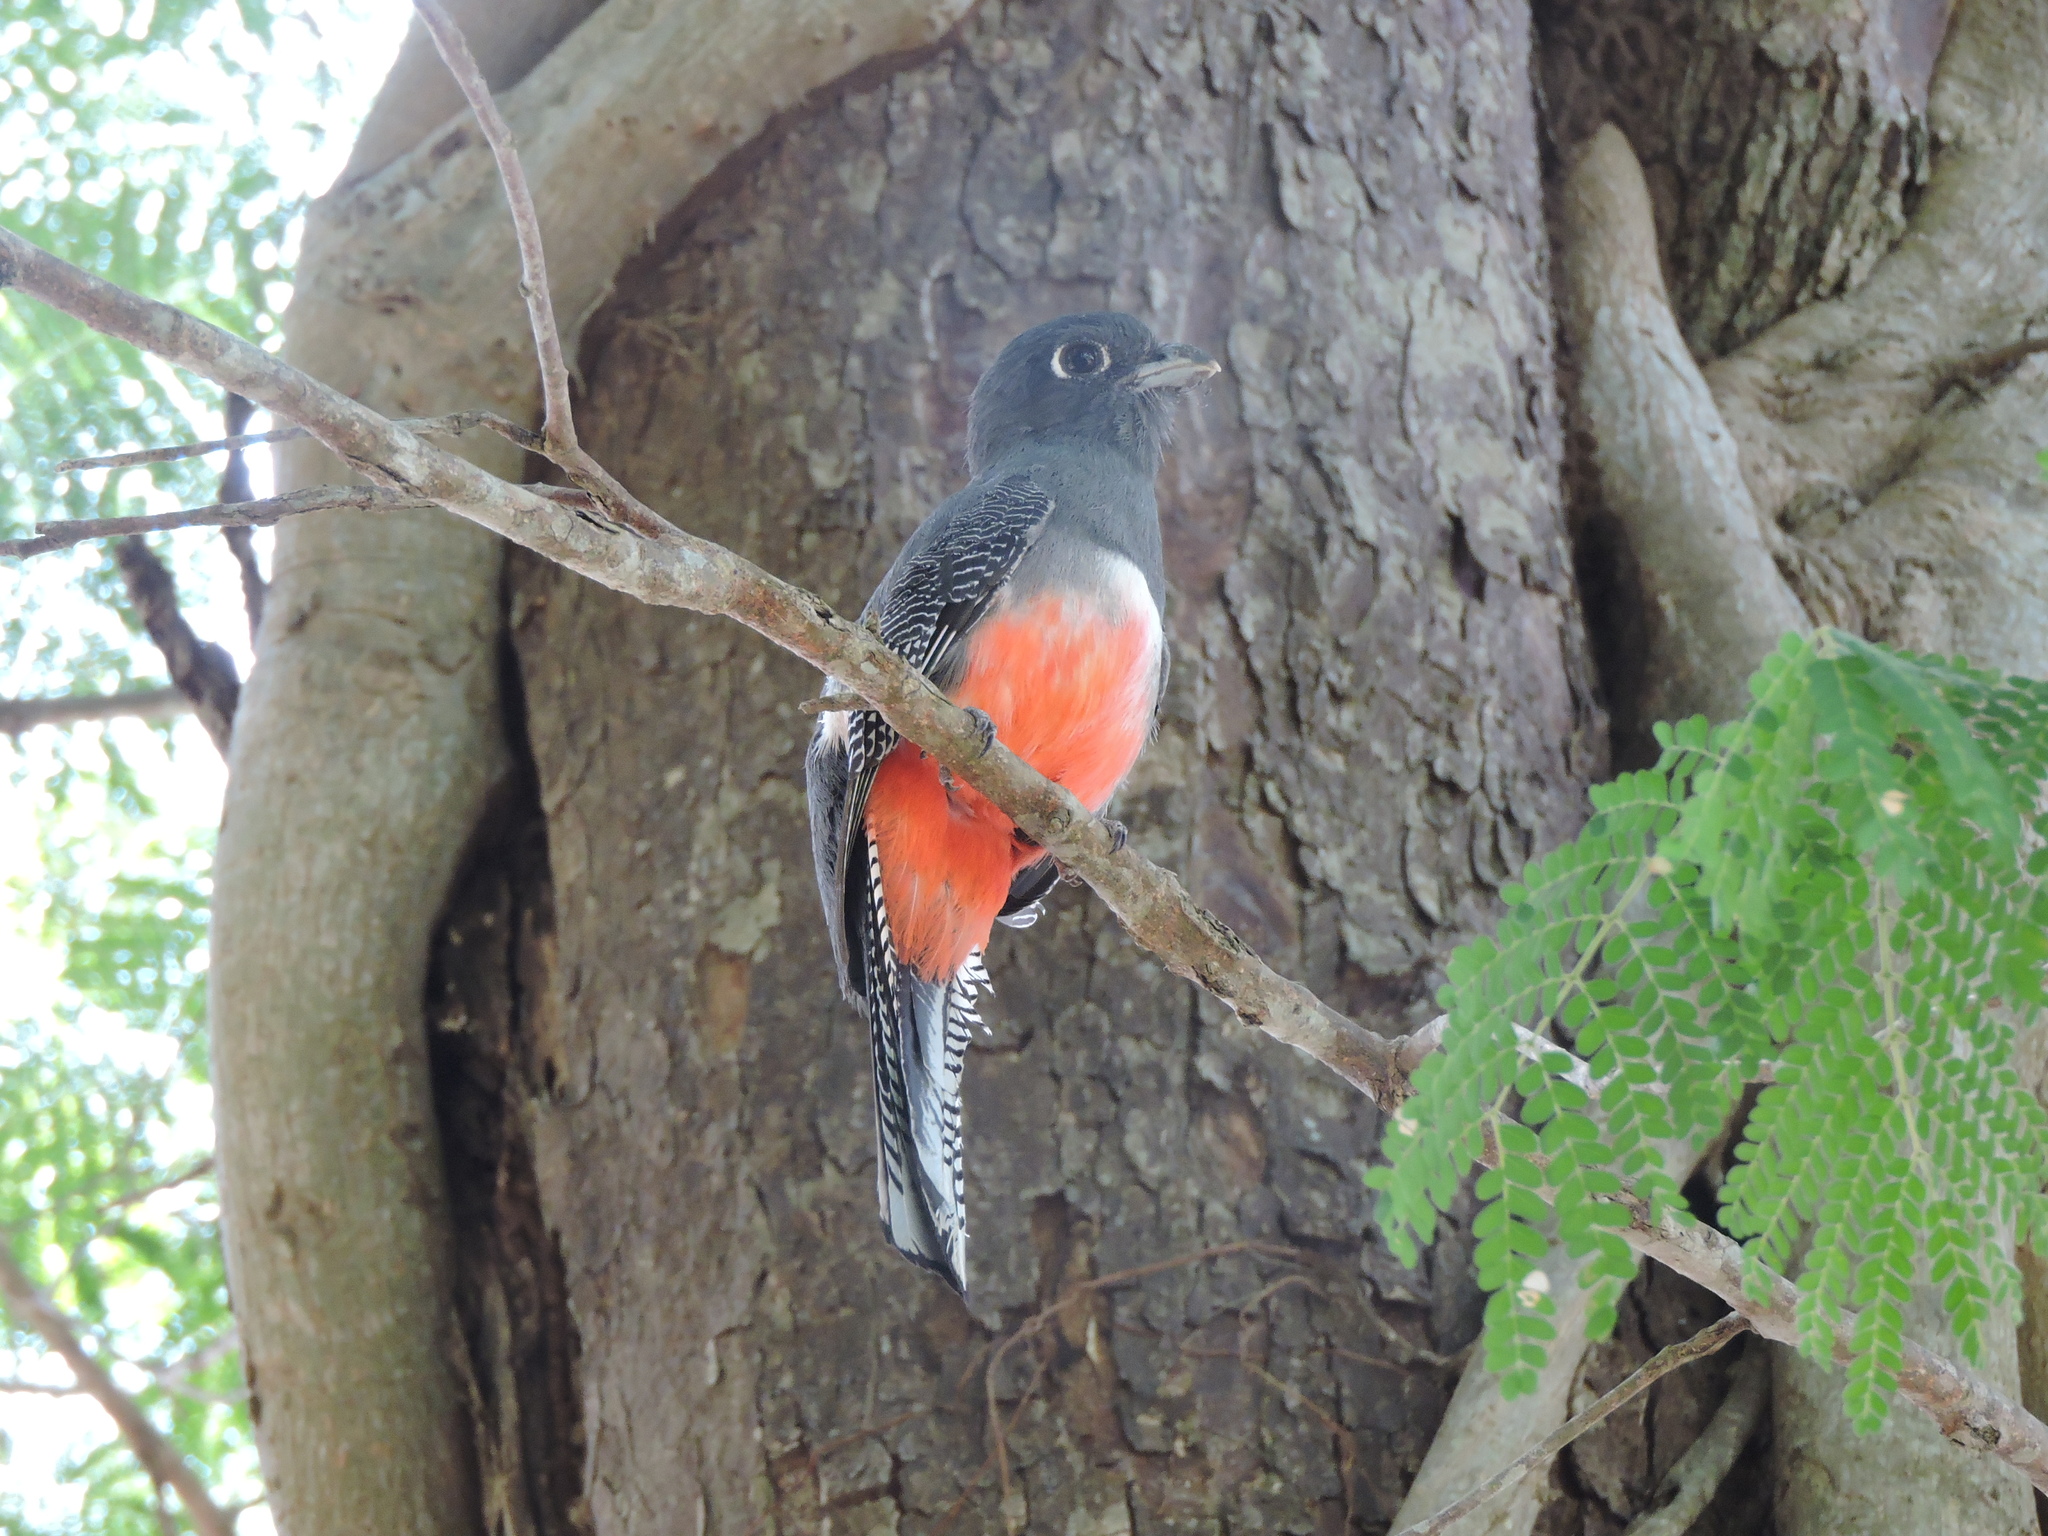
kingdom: Animalia
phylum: Chordata
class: Aves
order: Trogoniformes
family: Trogonidae
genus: Trogon
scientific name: Trogon curucui
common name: Blue-crowned trogon
